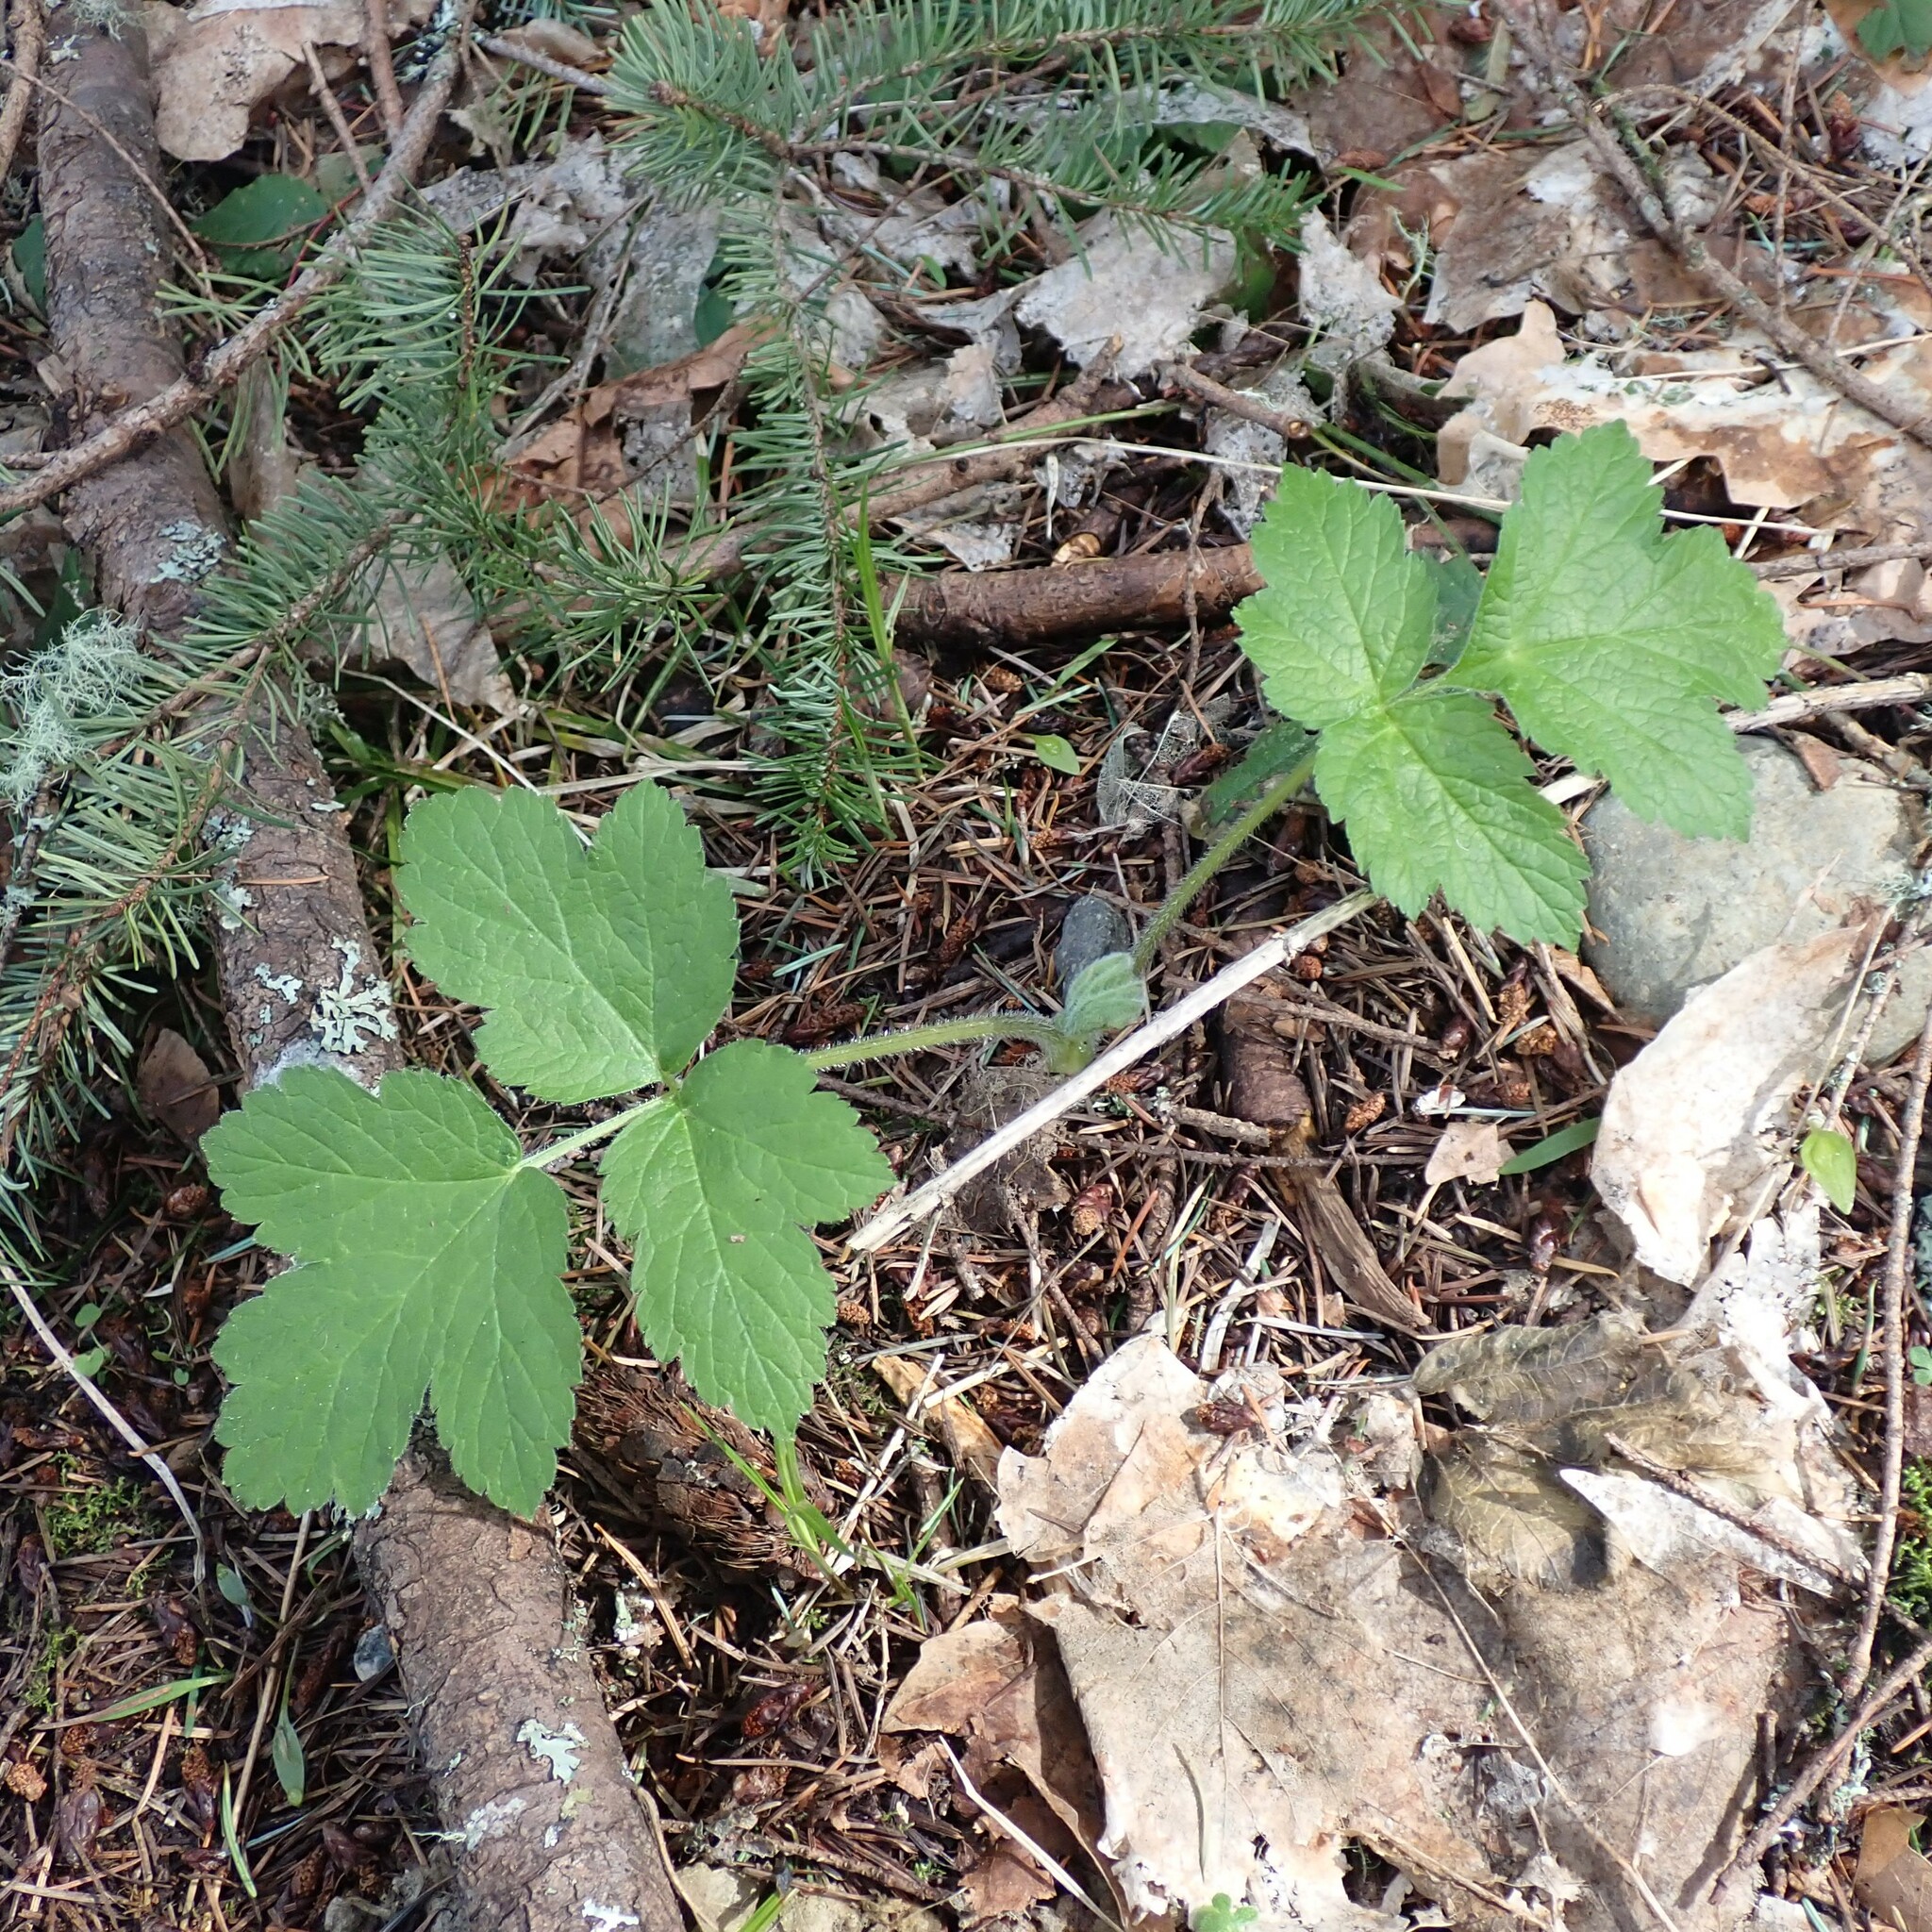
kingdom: Plantae
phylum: Tracheophyta
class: Magnoliopsida
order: Apiales
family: Apiaceae
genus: Heracleum
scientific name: Heracleum maximum
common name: American cow parsnip
